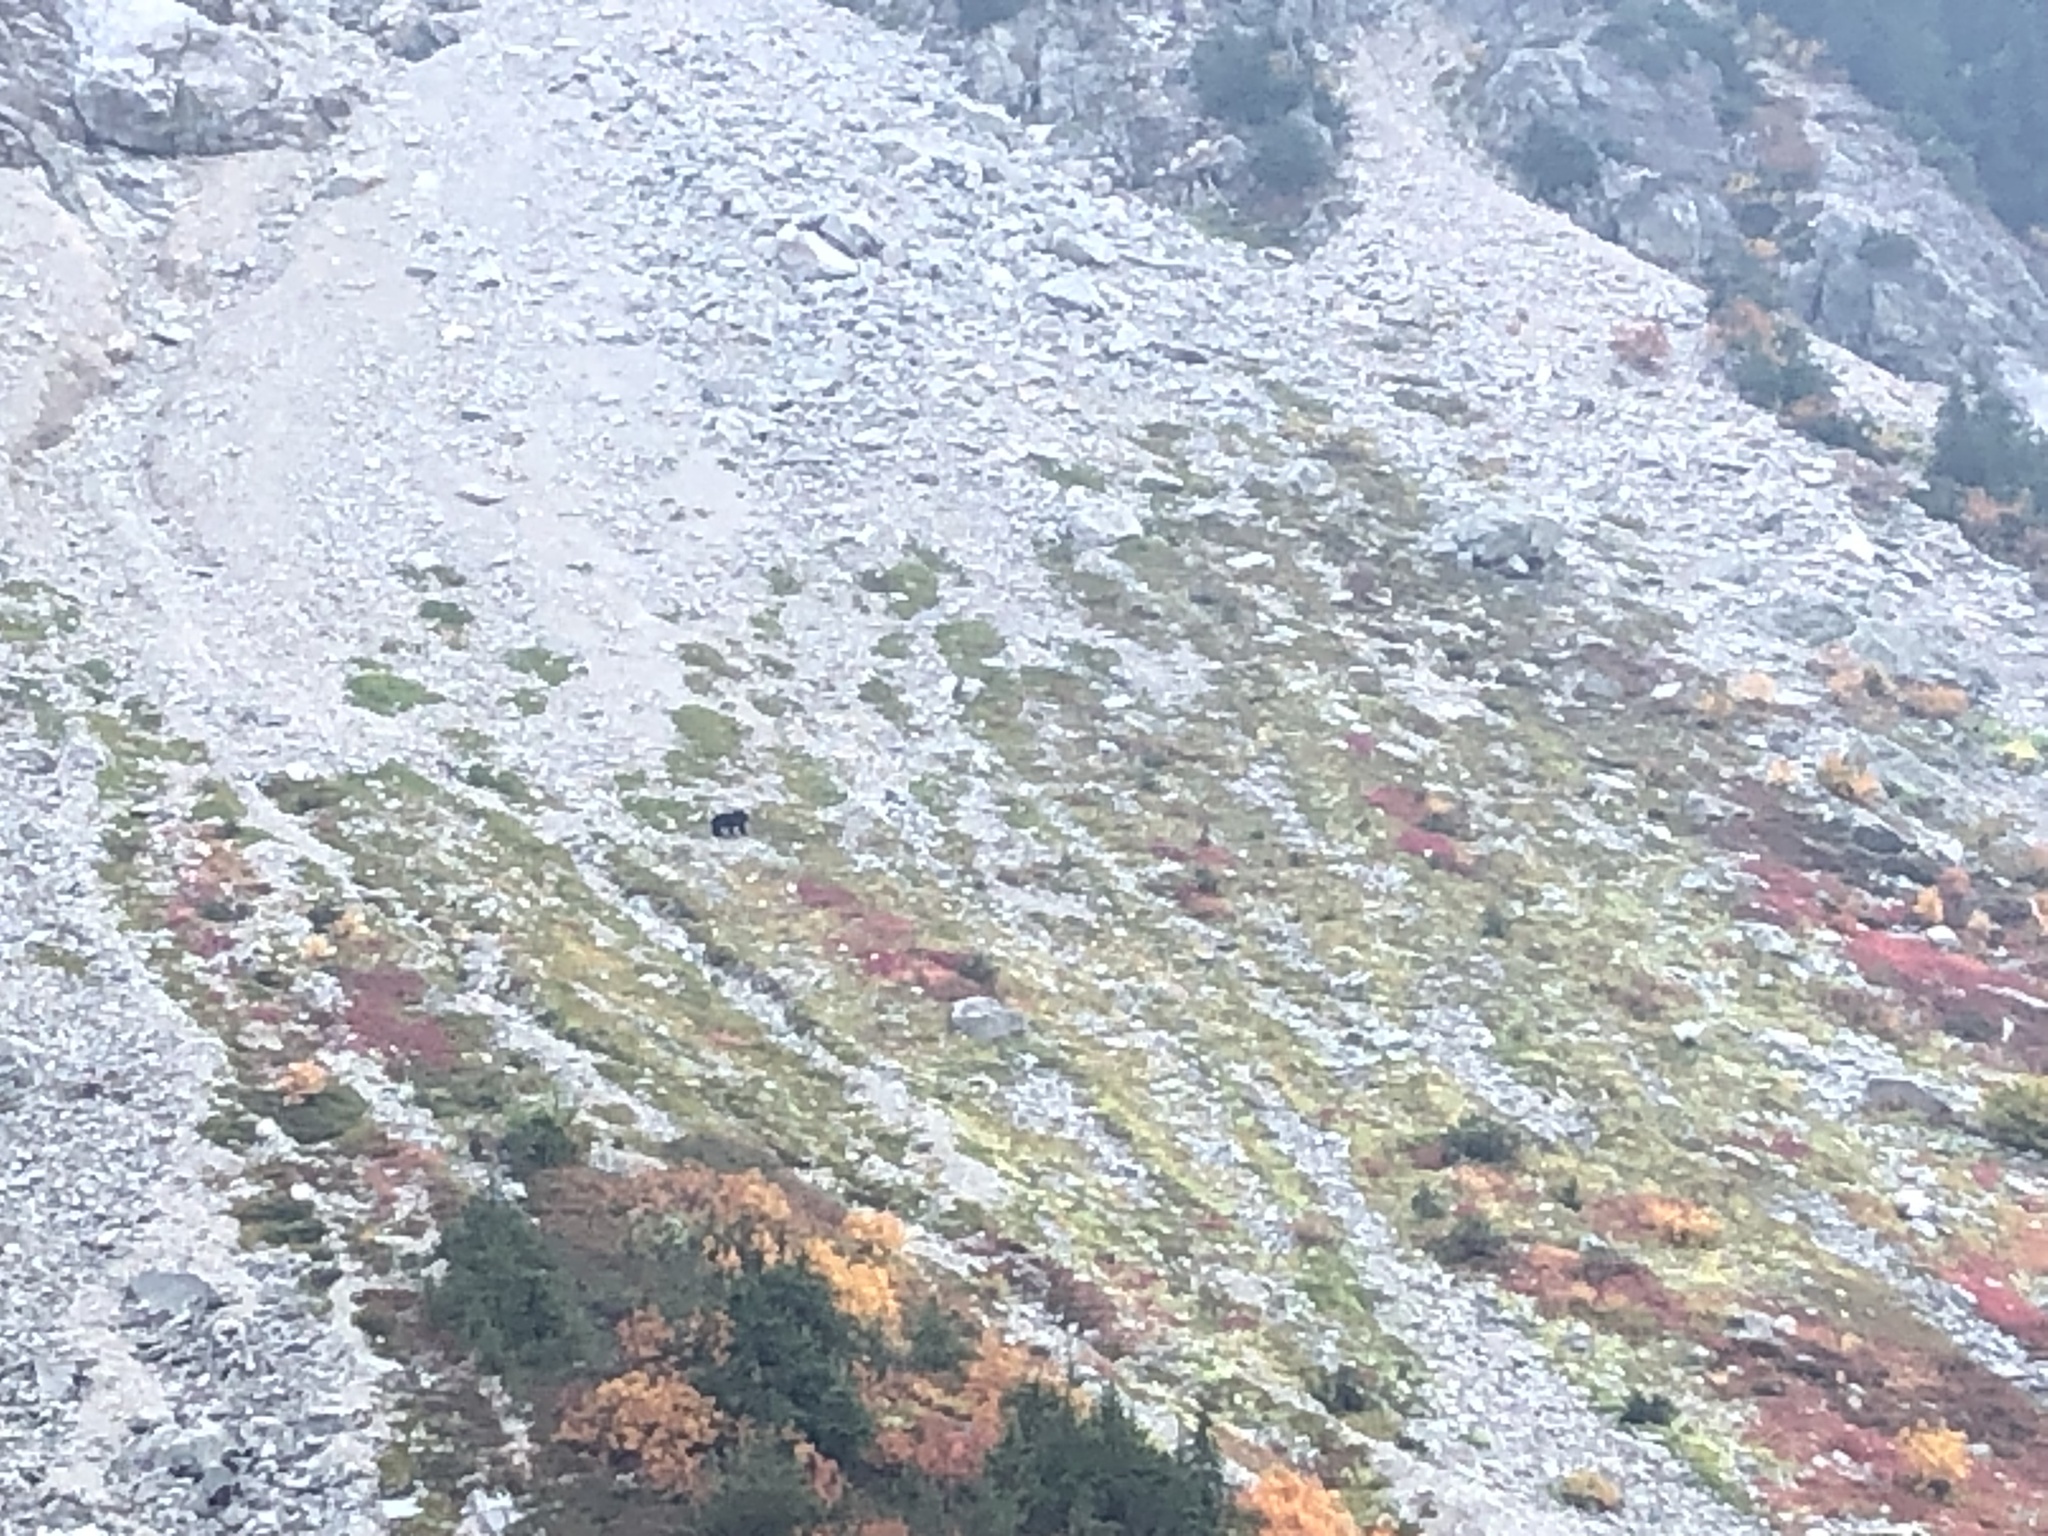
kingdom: Animalia
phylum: Chordata
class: Mammalia
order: Carnivora
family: Ursidae
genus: Ursus
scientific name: Ursus americanus
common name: American black bear
